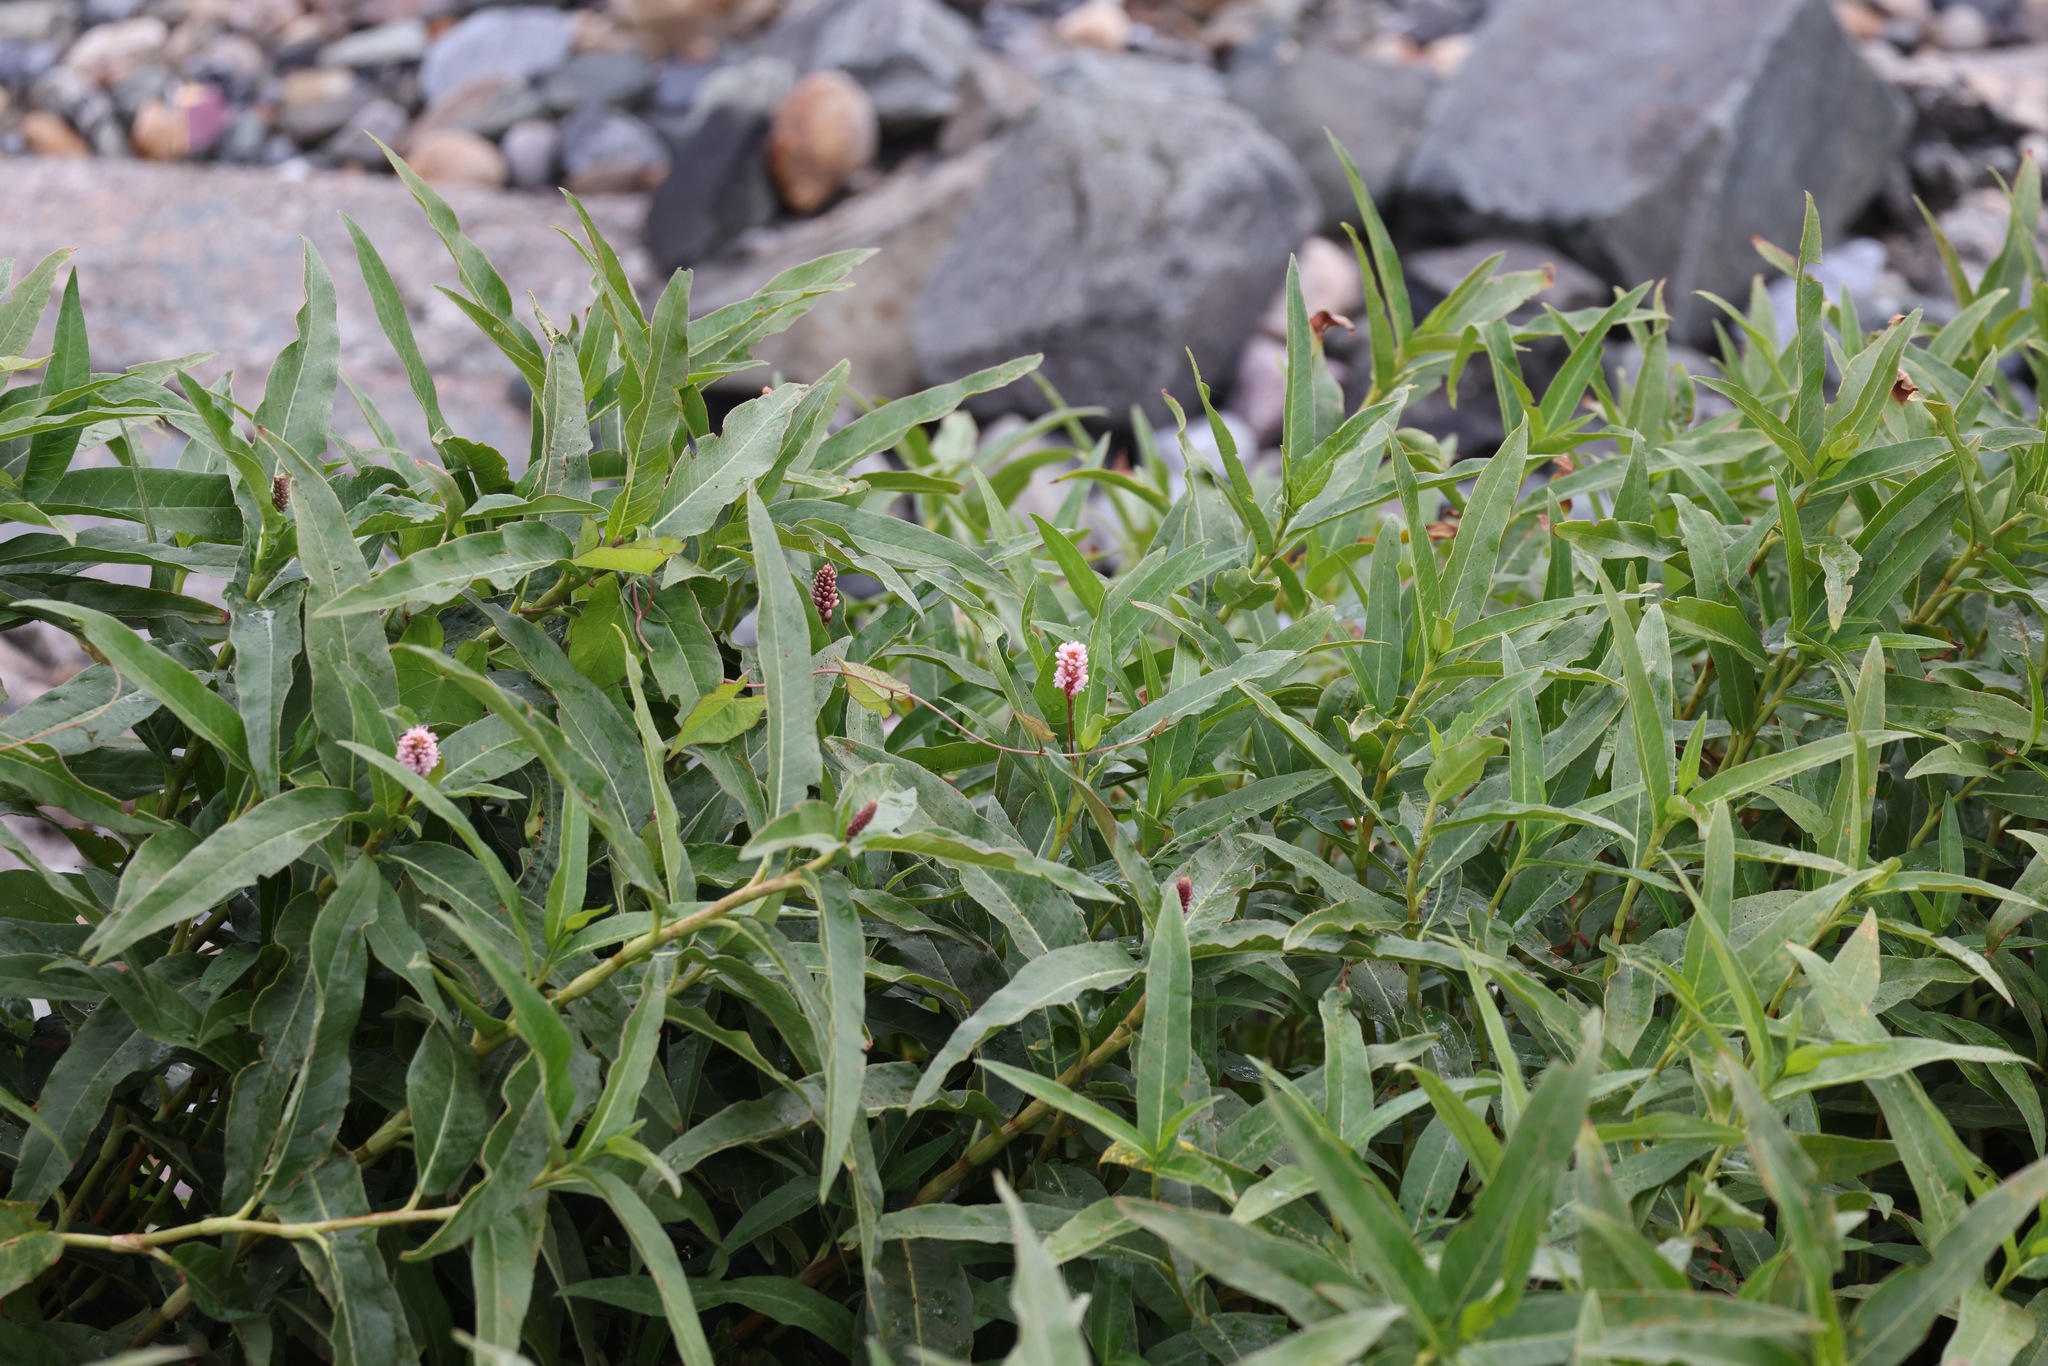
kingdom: Plantae
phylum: Tracheophyta
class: Magnoliopsida
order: Caryophyllales
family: Polygonaceae
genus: Persicaria
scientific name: Persicaria amphibia
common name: Amphibious bistort
